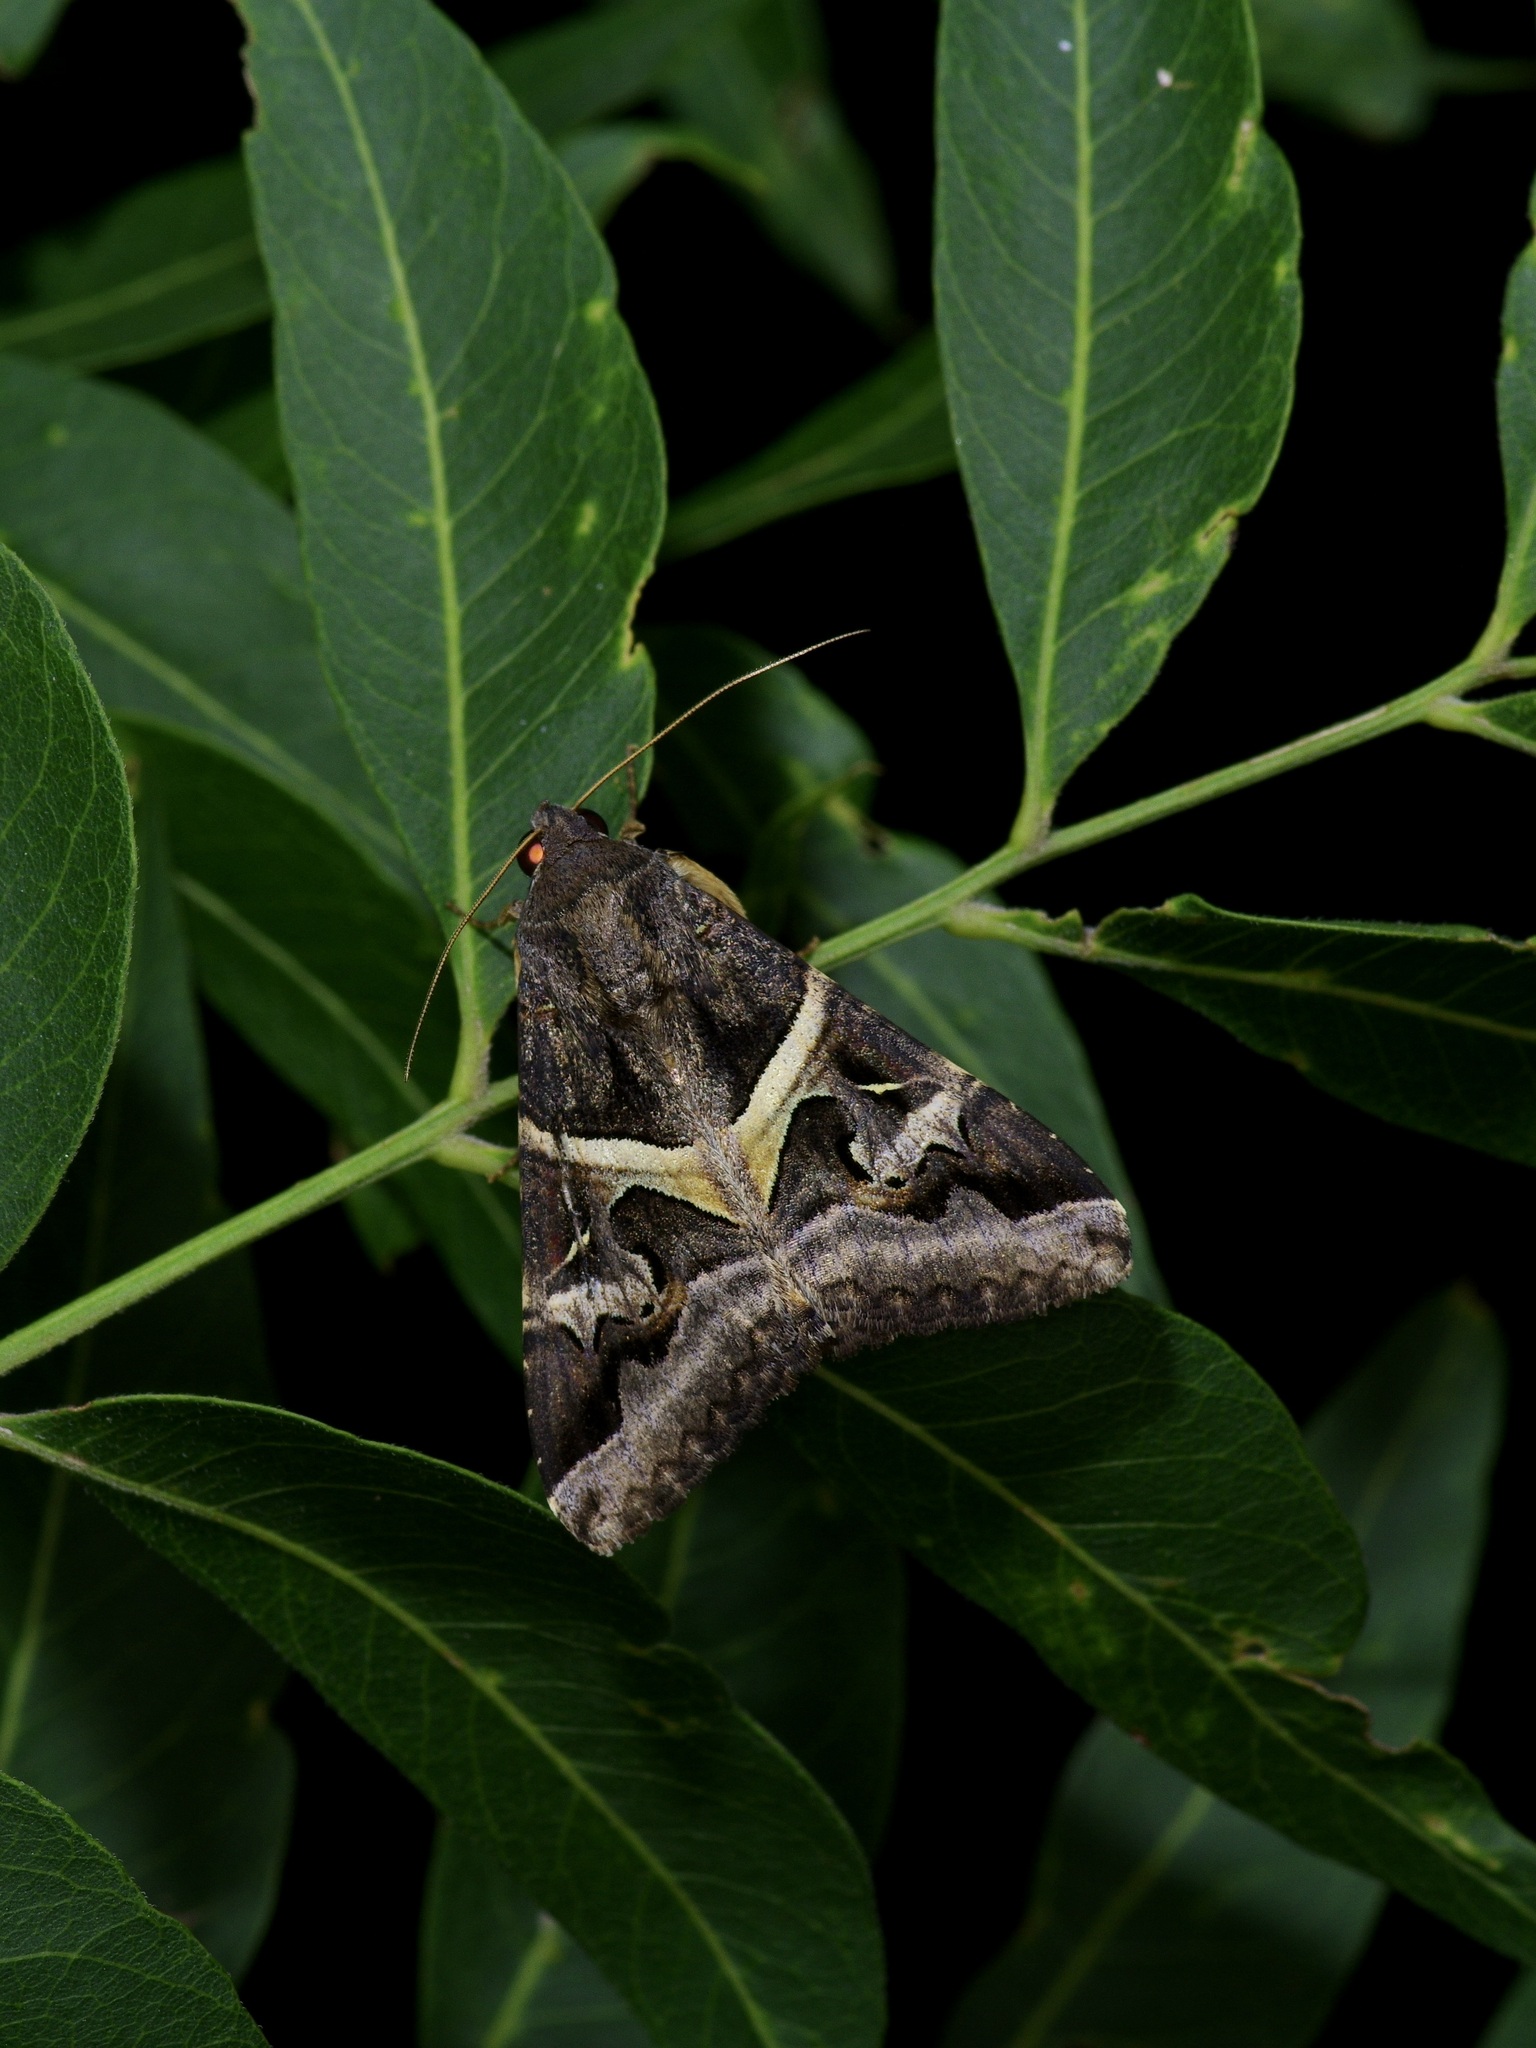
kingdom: Animalia
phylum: Arthropoda
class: Insecta
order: Lepidoptera
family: Erebidae
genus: Melipotis
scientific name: Melipotis indomita
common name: Moth
